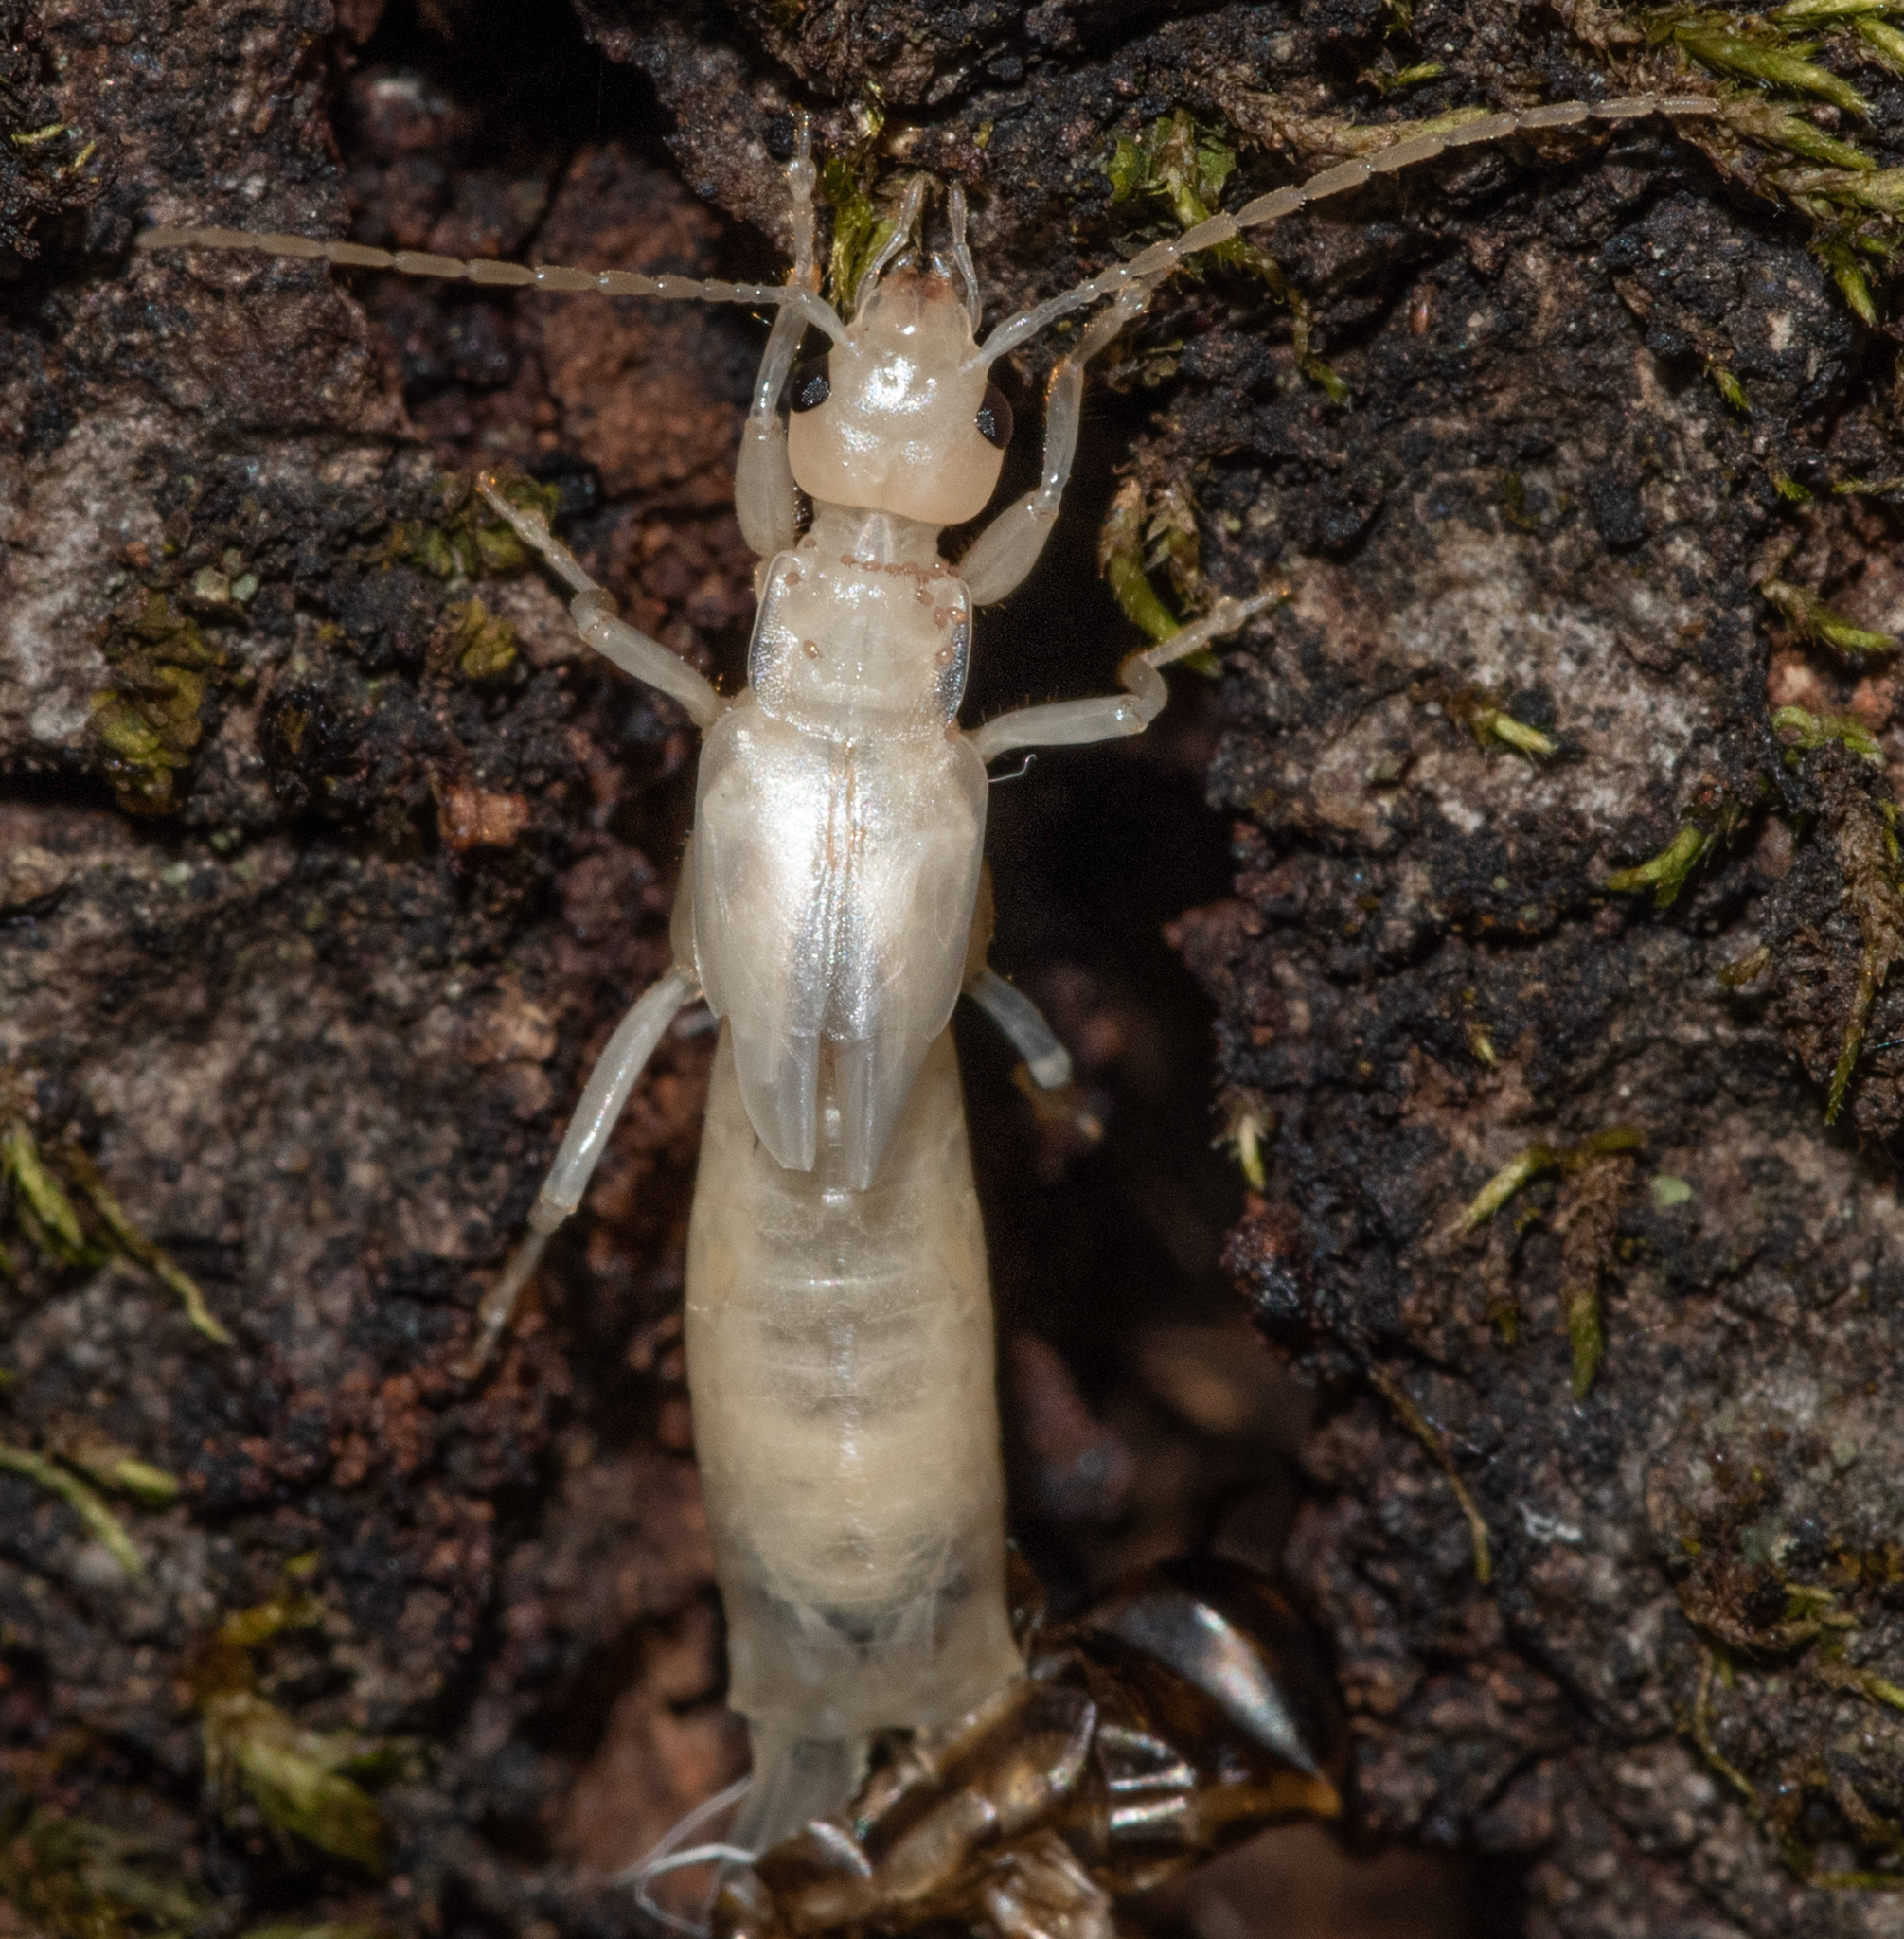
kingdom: Animalia
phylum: Arthropoda
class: Insecta
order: Dermaptera
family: Forficulidae
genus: Forficula
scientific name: Forficula
